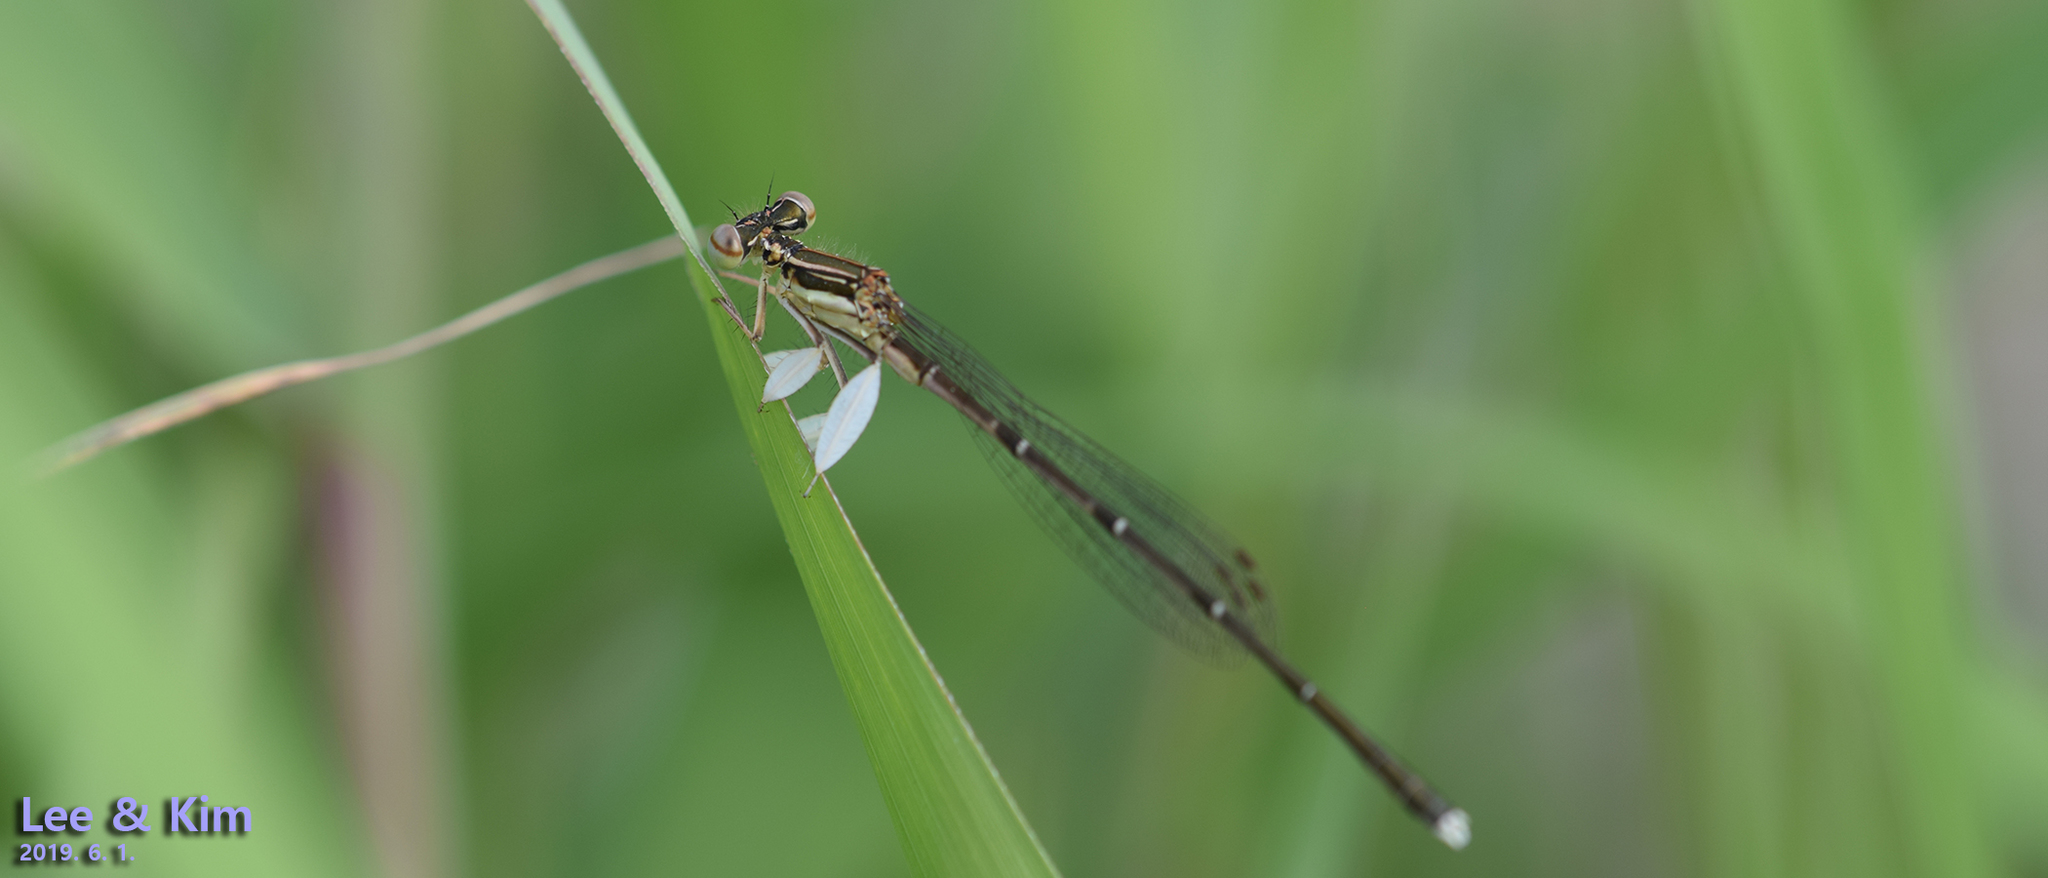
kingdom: Animalia
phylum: Arthropoda
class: Insecta
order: Odonata
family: Platycnemididae
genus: Platycnemis
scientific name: Platycnemis phyllopoda
